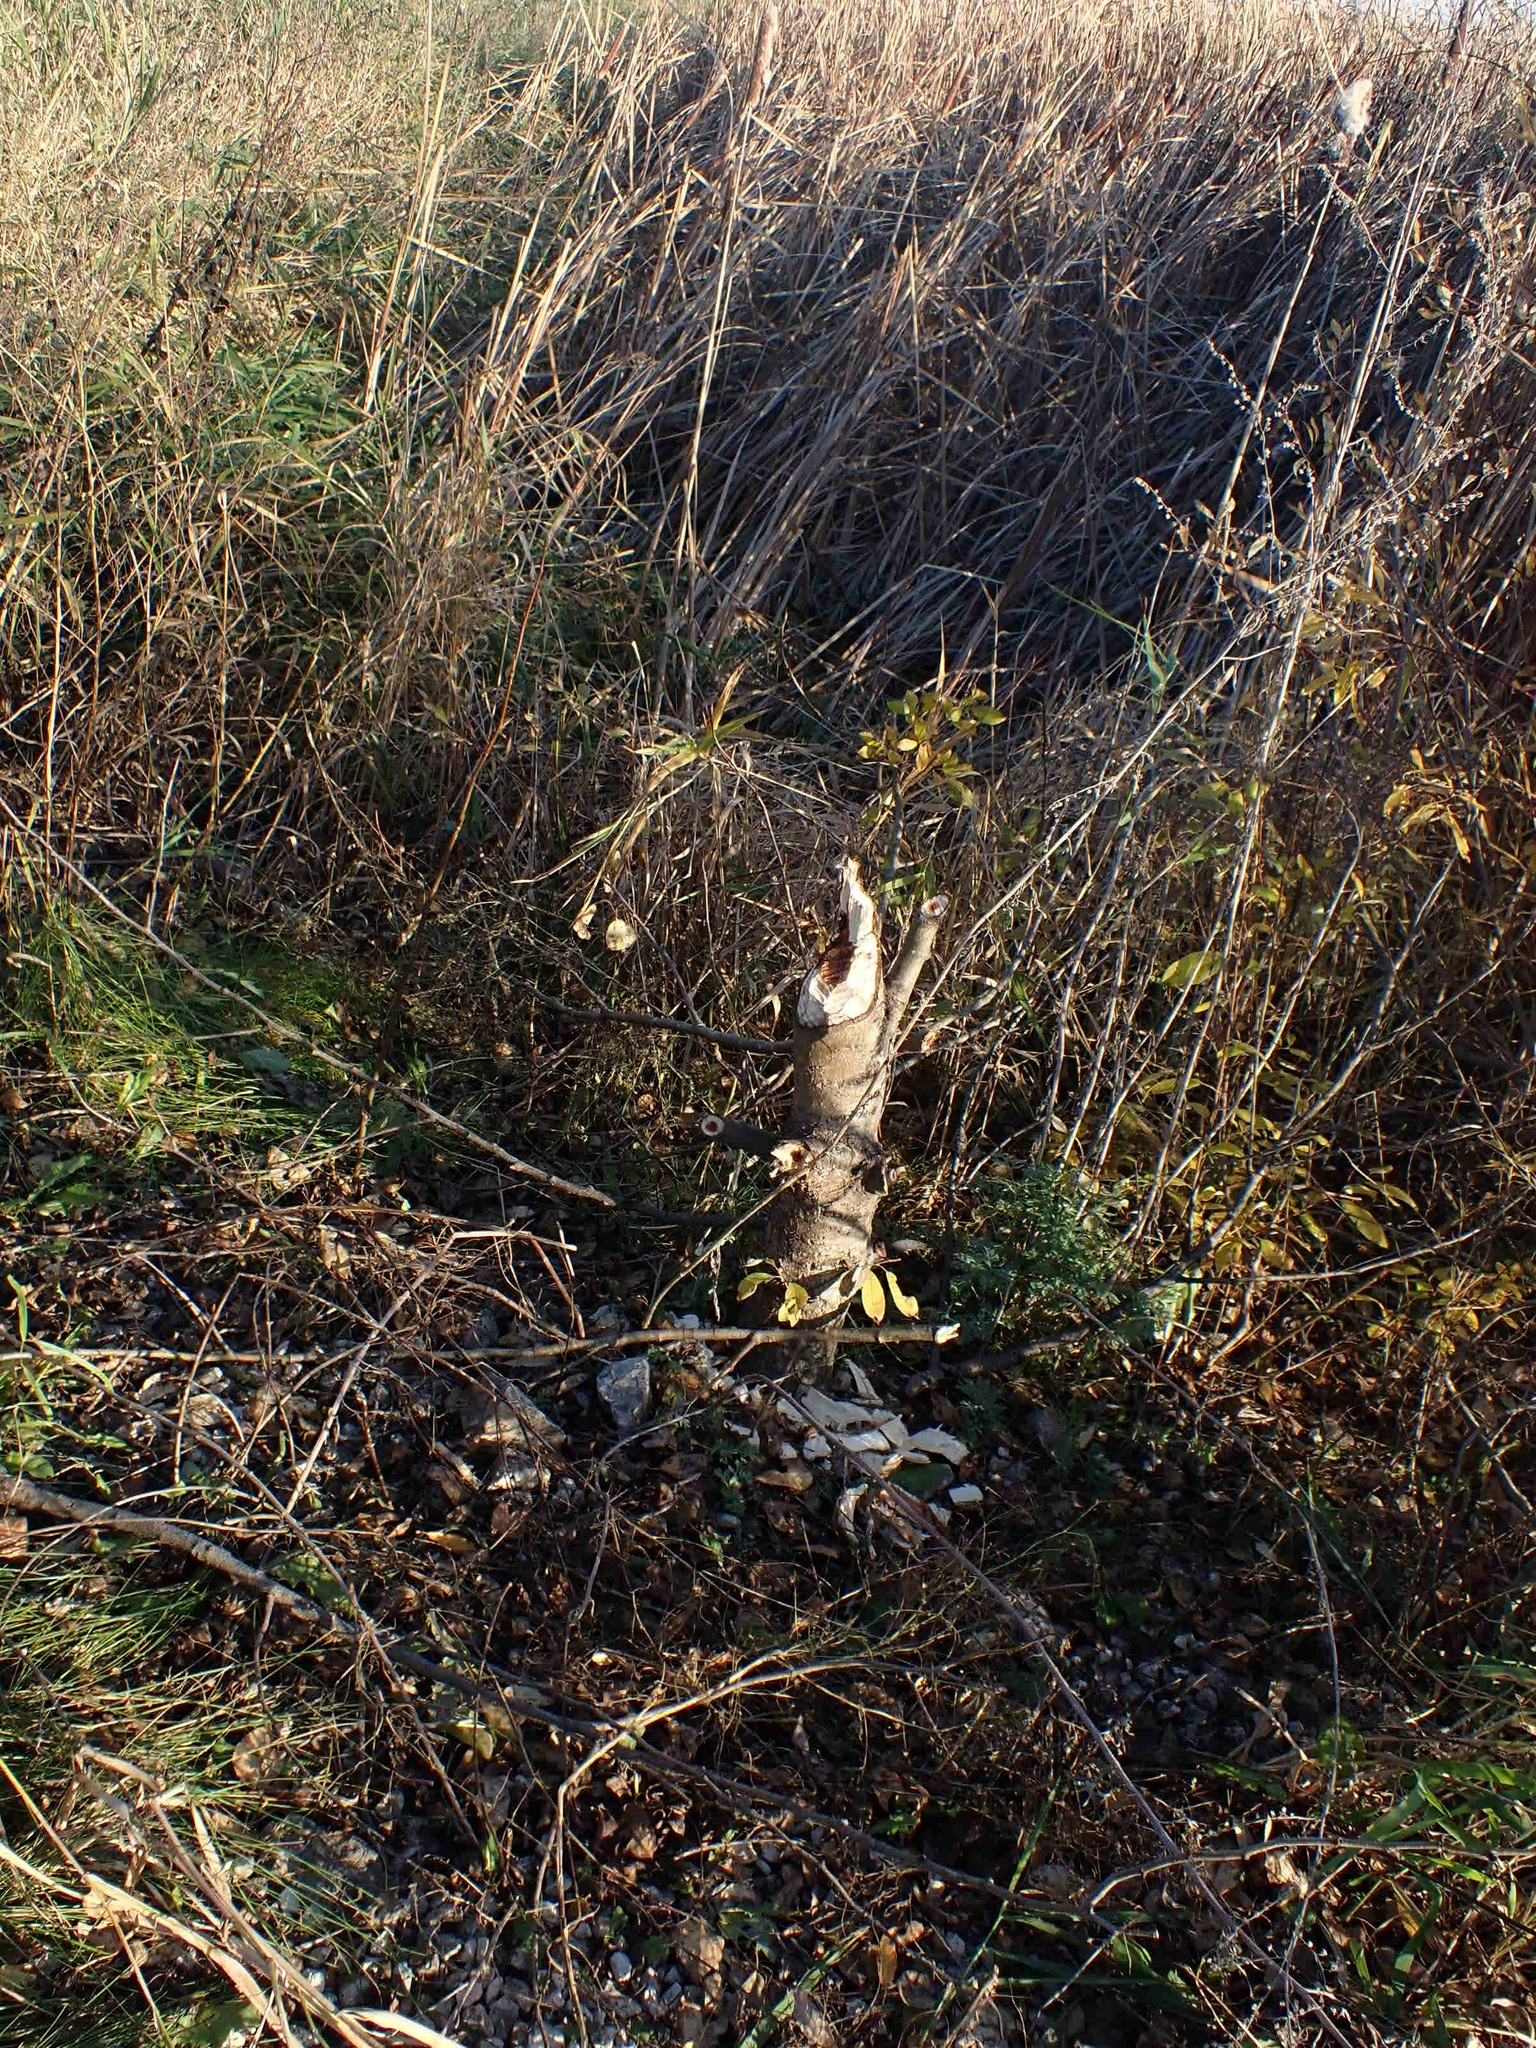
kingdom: Animalia
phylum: Chordata
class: Mammalia
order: Rodentia
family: Castoridae
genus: Castor
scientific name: Castor canadensis
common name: American beaver
